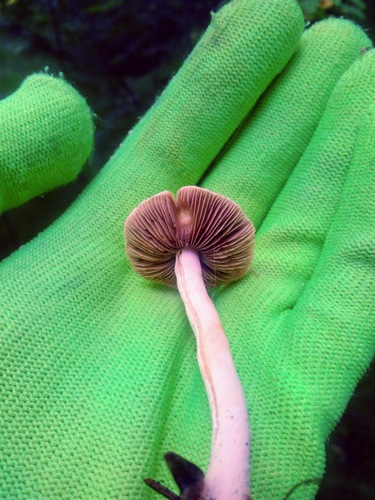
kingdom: Fungi
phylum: Basidiomycota
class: Agaricomycetes
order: Agaricales
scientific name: Agaricales
